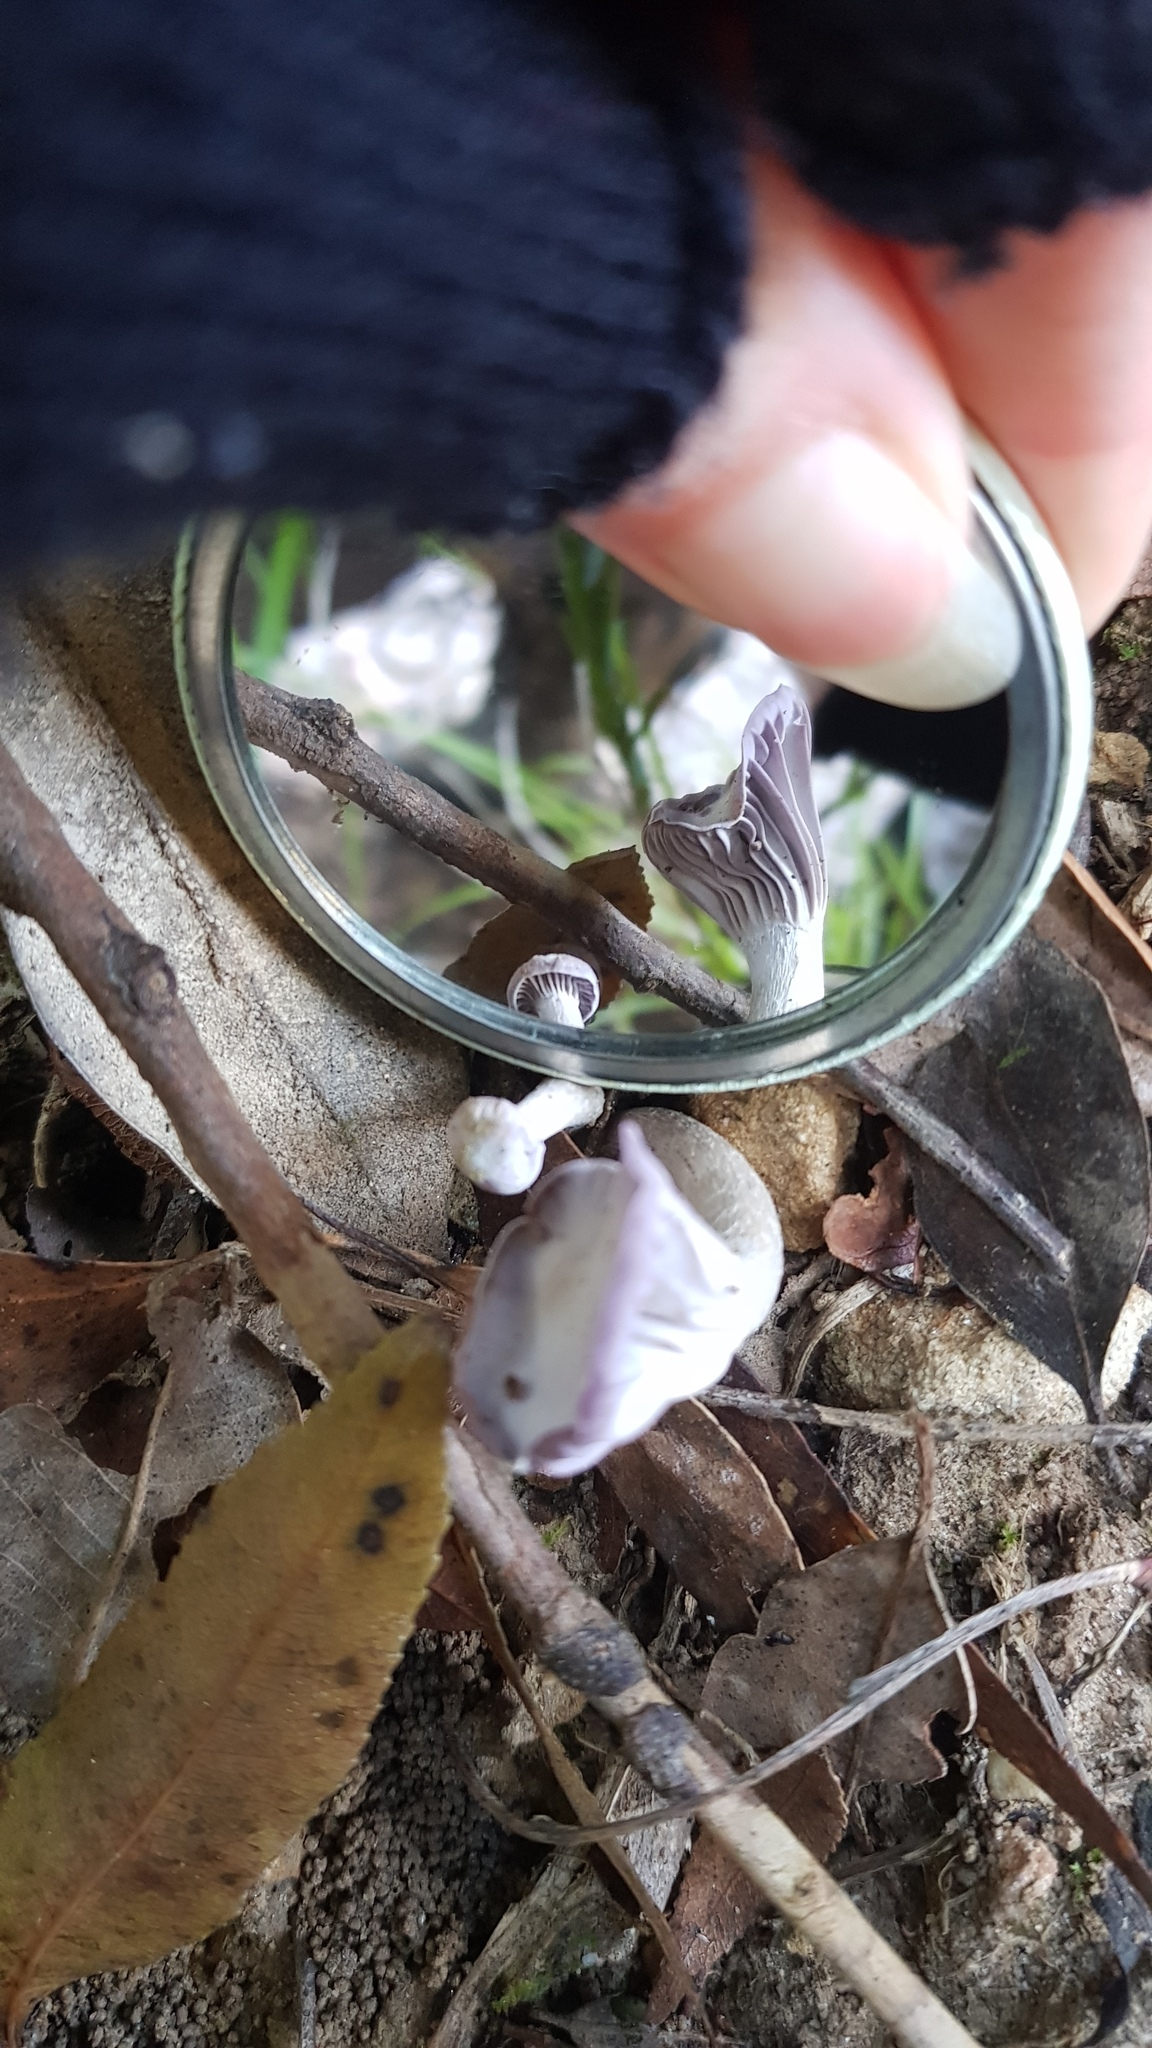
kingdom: Fungi
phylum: Basidiomycota
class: Agaricomycetes
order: Agaricales
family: Hygrophoraceae
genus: Hygrocybe
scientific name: Hygrocybe reesiae
